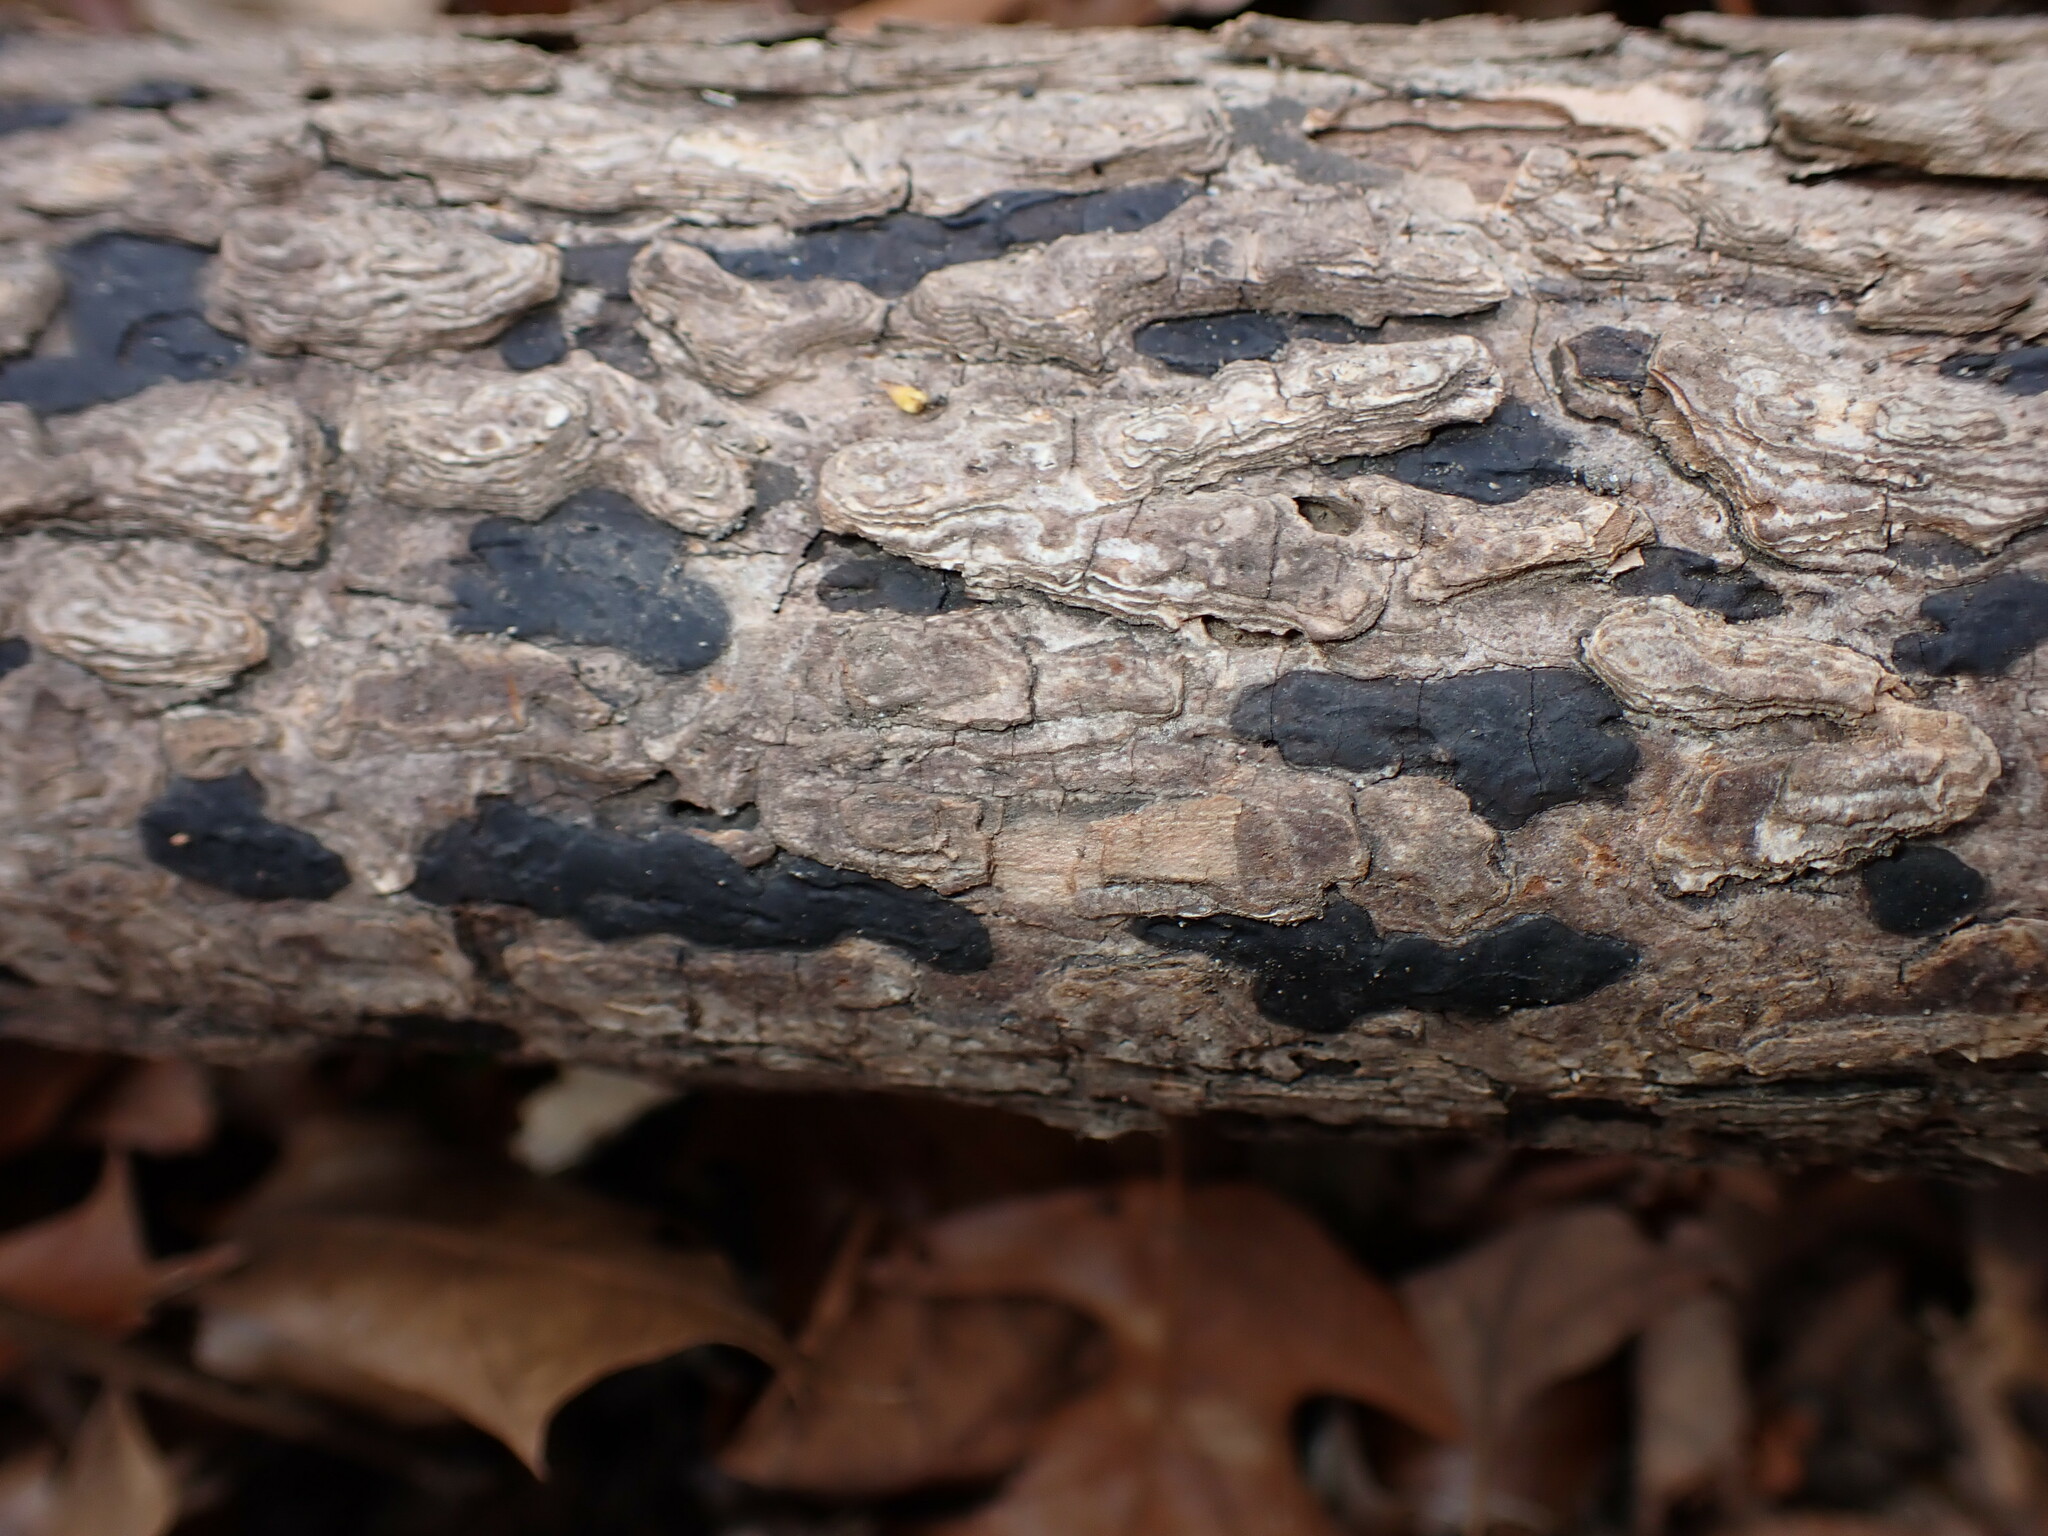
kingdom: Fungi
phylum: Ascomycota
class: Sordariomycetes
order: Xylariales
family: Xylariaceae
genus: Whalleya
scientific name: Whalleya microplaca
